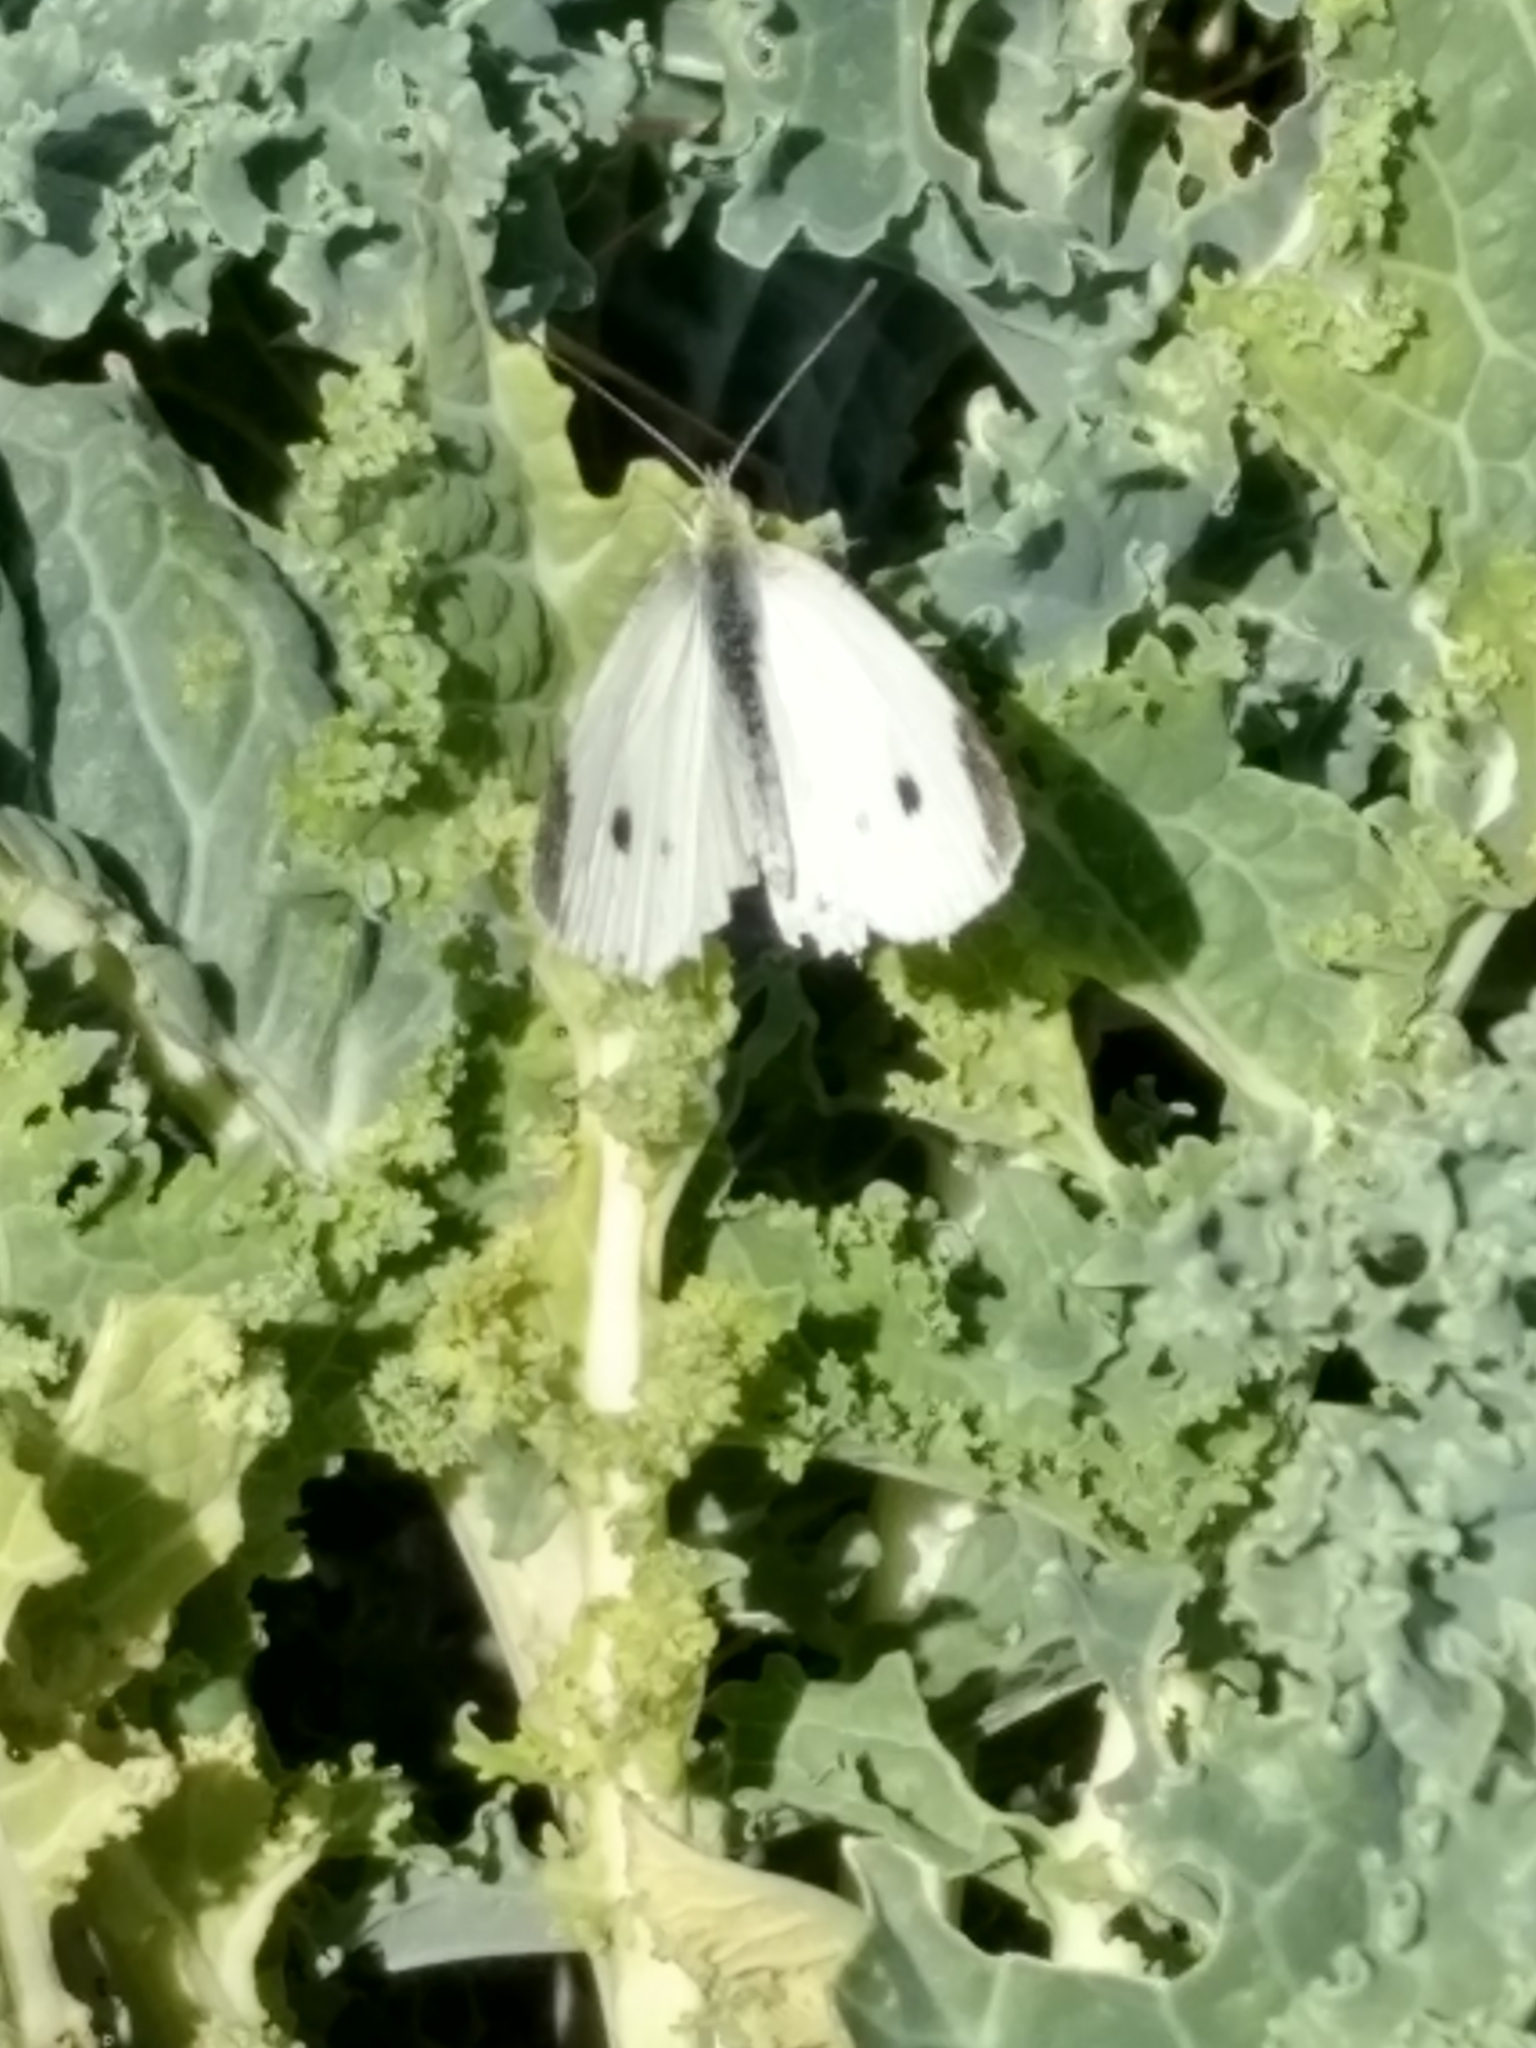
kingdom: Animalia
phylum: Arthropoda
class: Insecta
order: Lepidoptera
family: Pieridae
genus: Pieris
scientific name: Pieris rapae
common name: Small white
